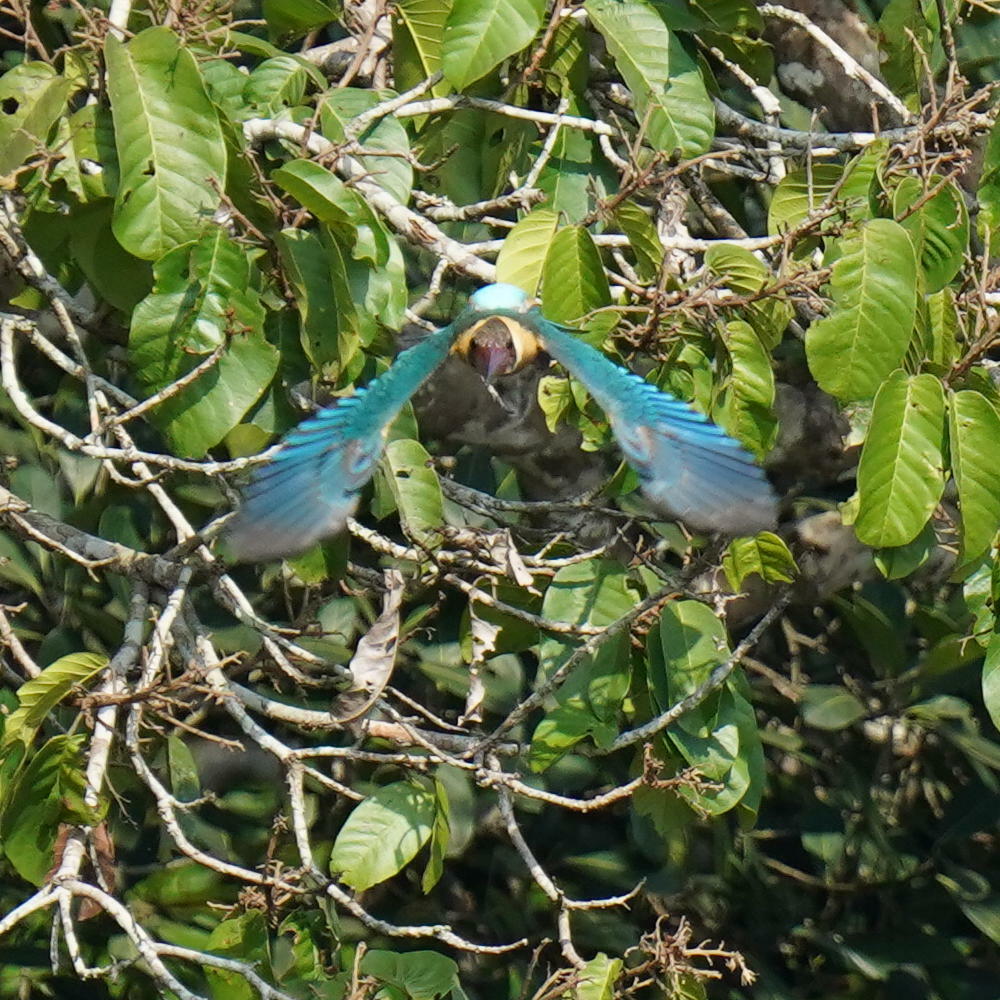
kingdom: Animalia
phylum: Chordata
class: Aves
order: Coraciiformes
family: Alcedinidae
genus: Pelargopsis
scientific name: Pelargopsis capensis
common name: Stork-billed kingfisher
